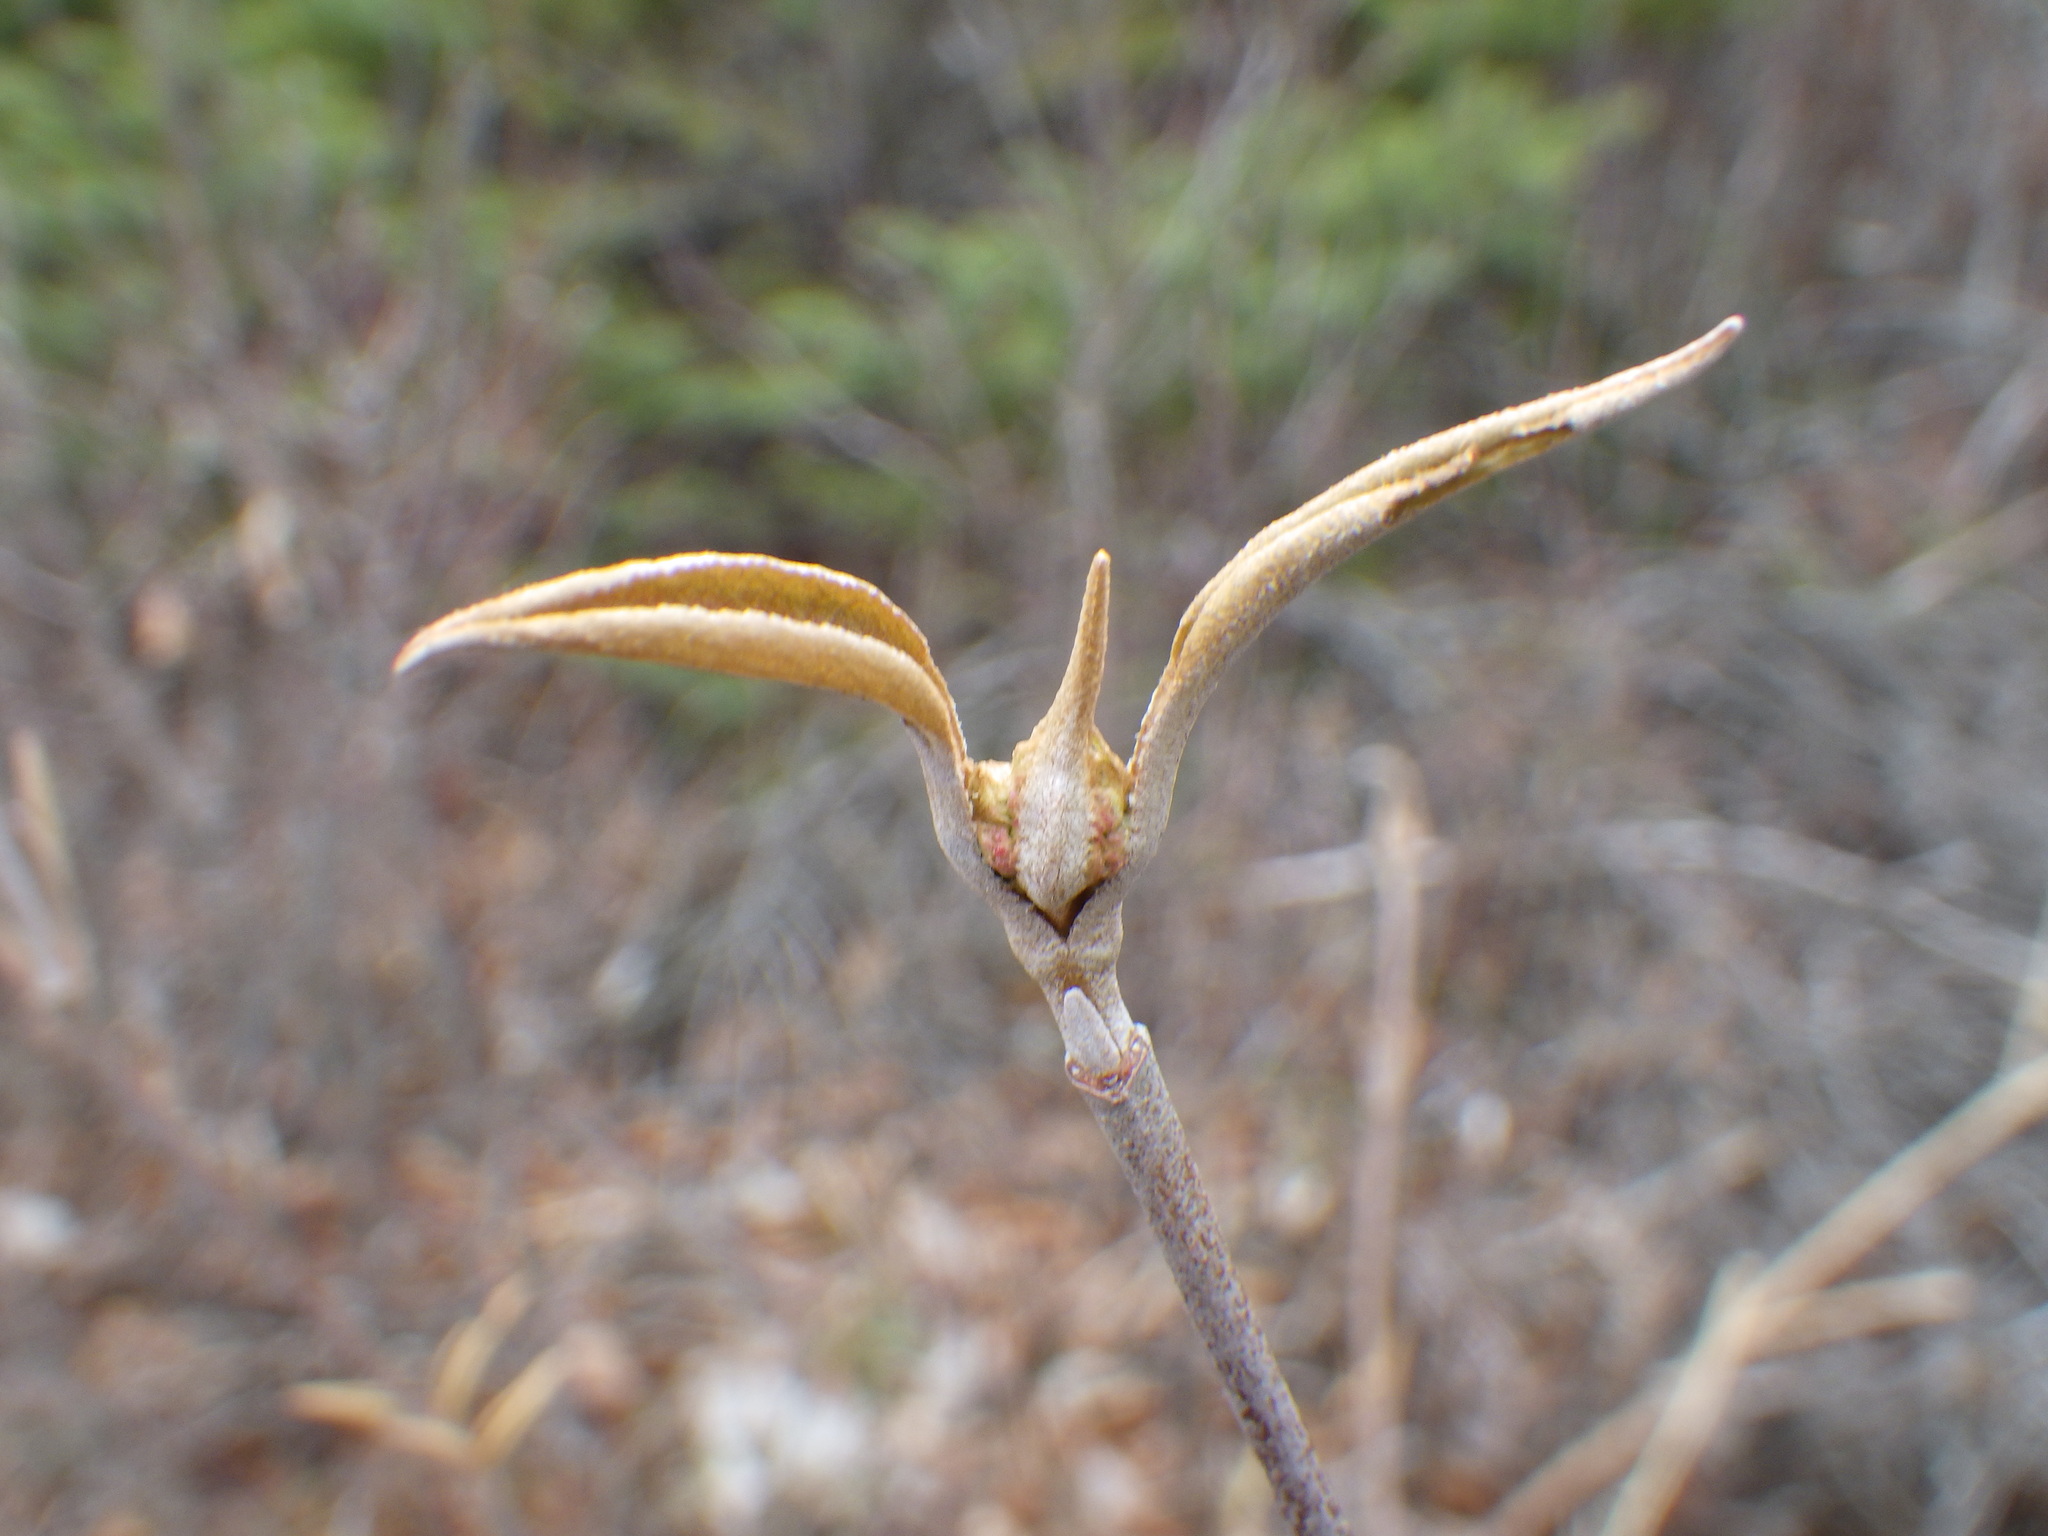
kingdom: Plantae
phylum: Tracheophyta
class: Magnoliopsida
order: Dipsacales
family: Viburnaceae
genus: Viburnum
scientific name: Viburnum cassinoides
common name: Swamp haw
